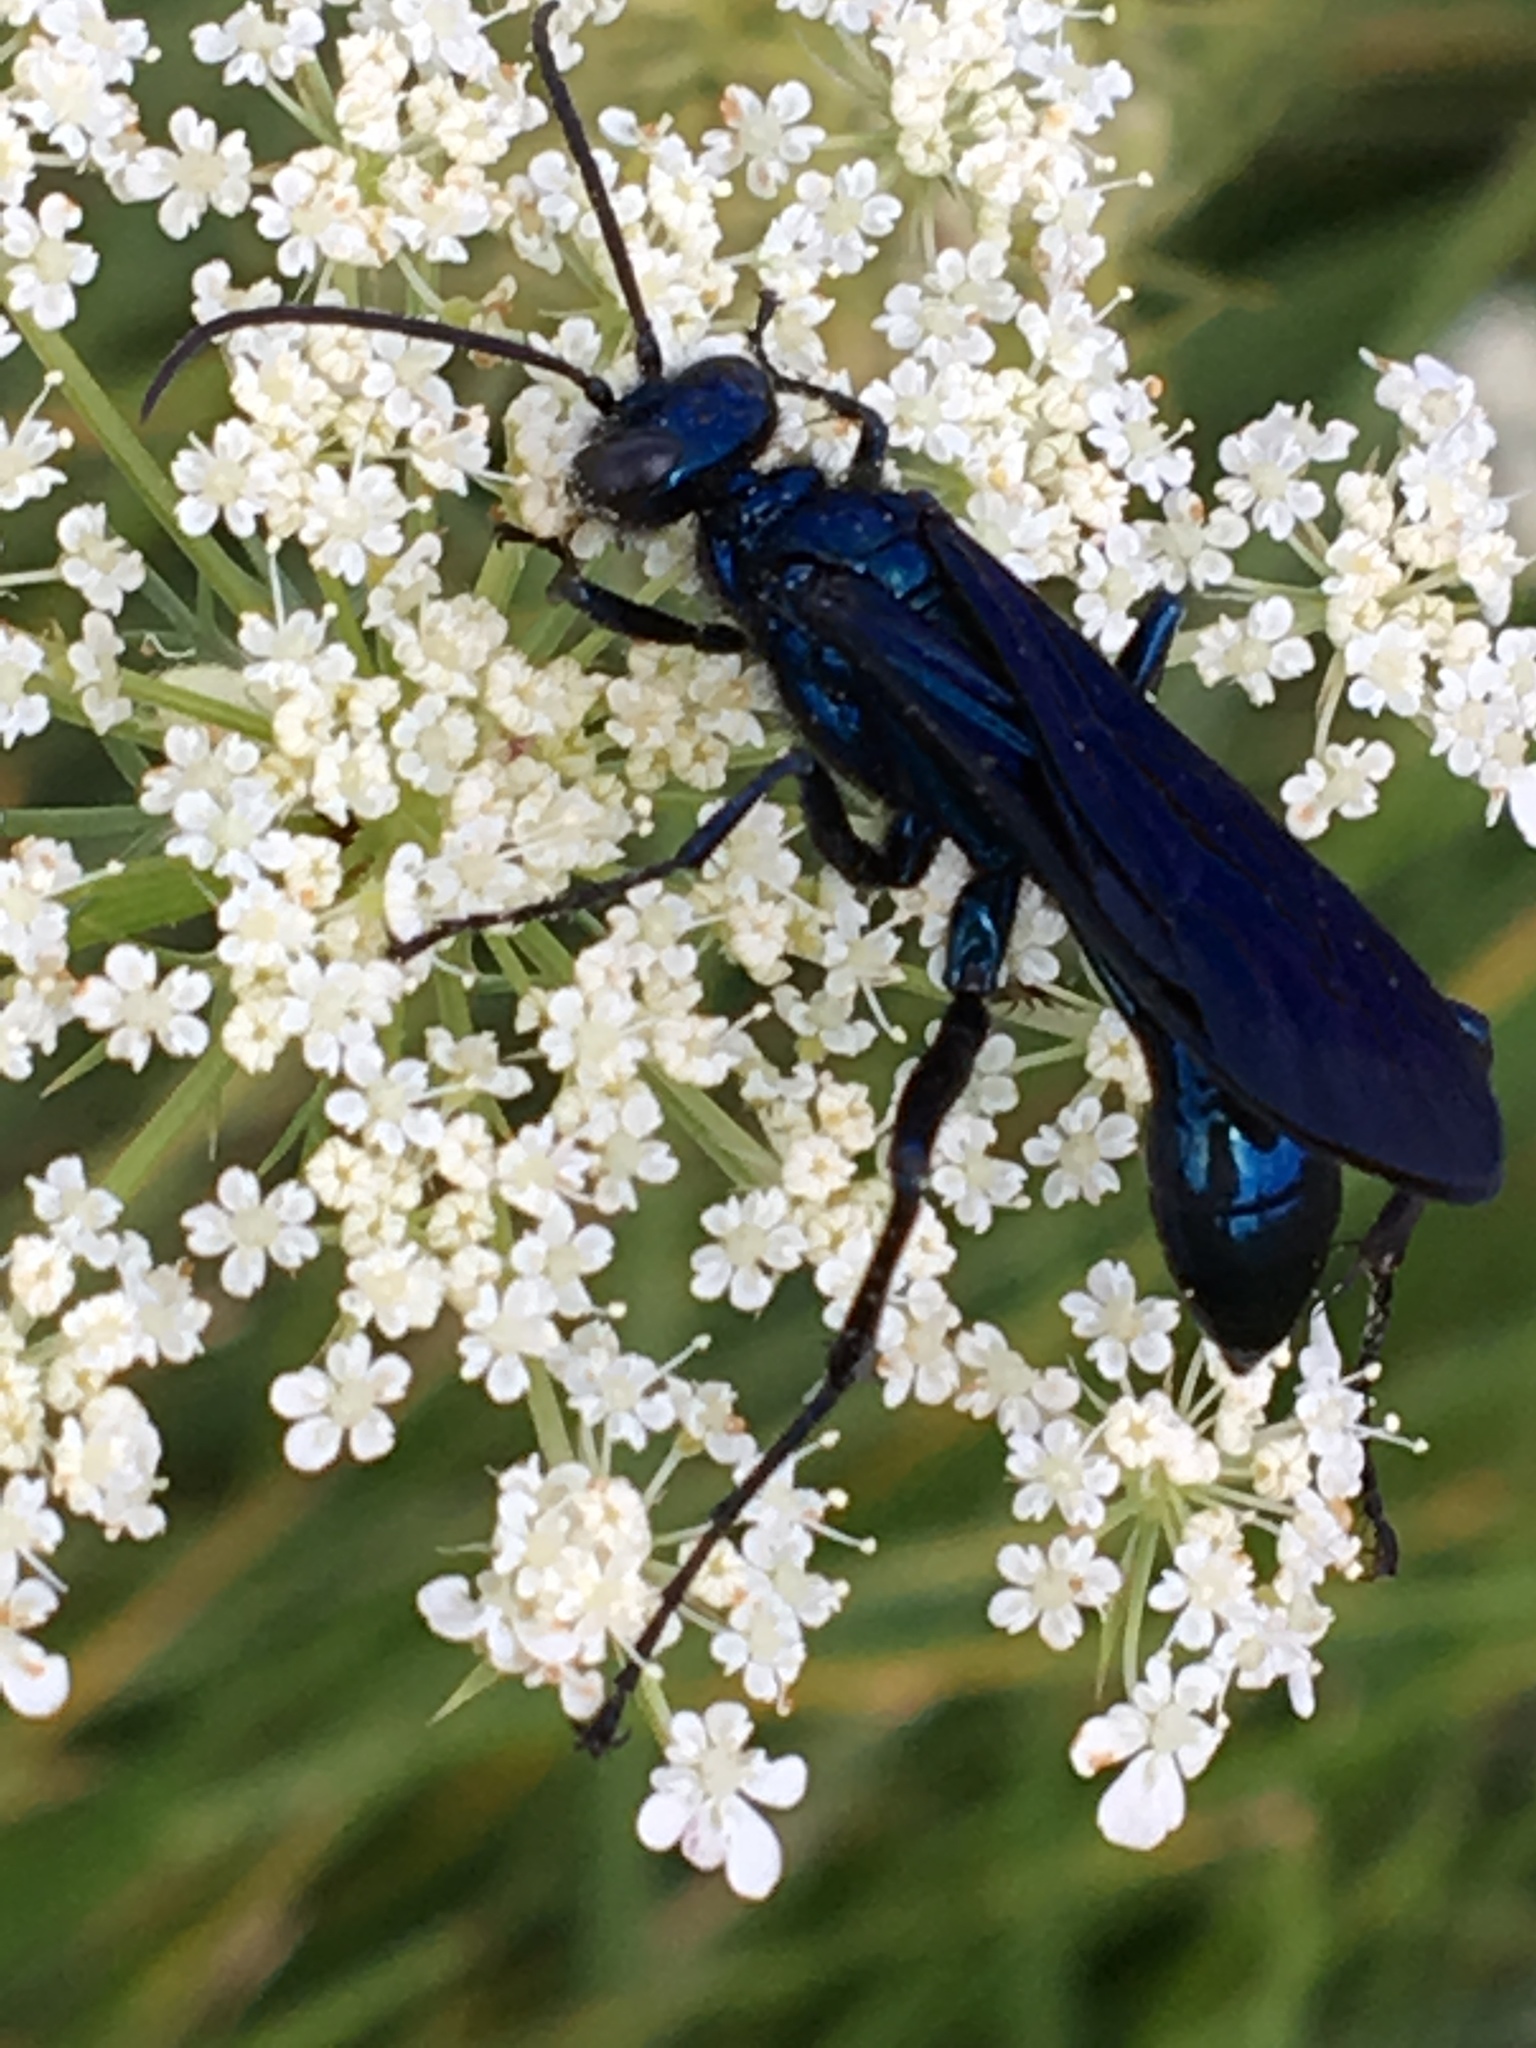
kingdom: Animalia
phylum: Arthropoda
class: Insecta
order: Hymenoptera
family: Sphecidae
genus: Chalybion
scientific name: Chalybion californicum
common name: Mud dauber
